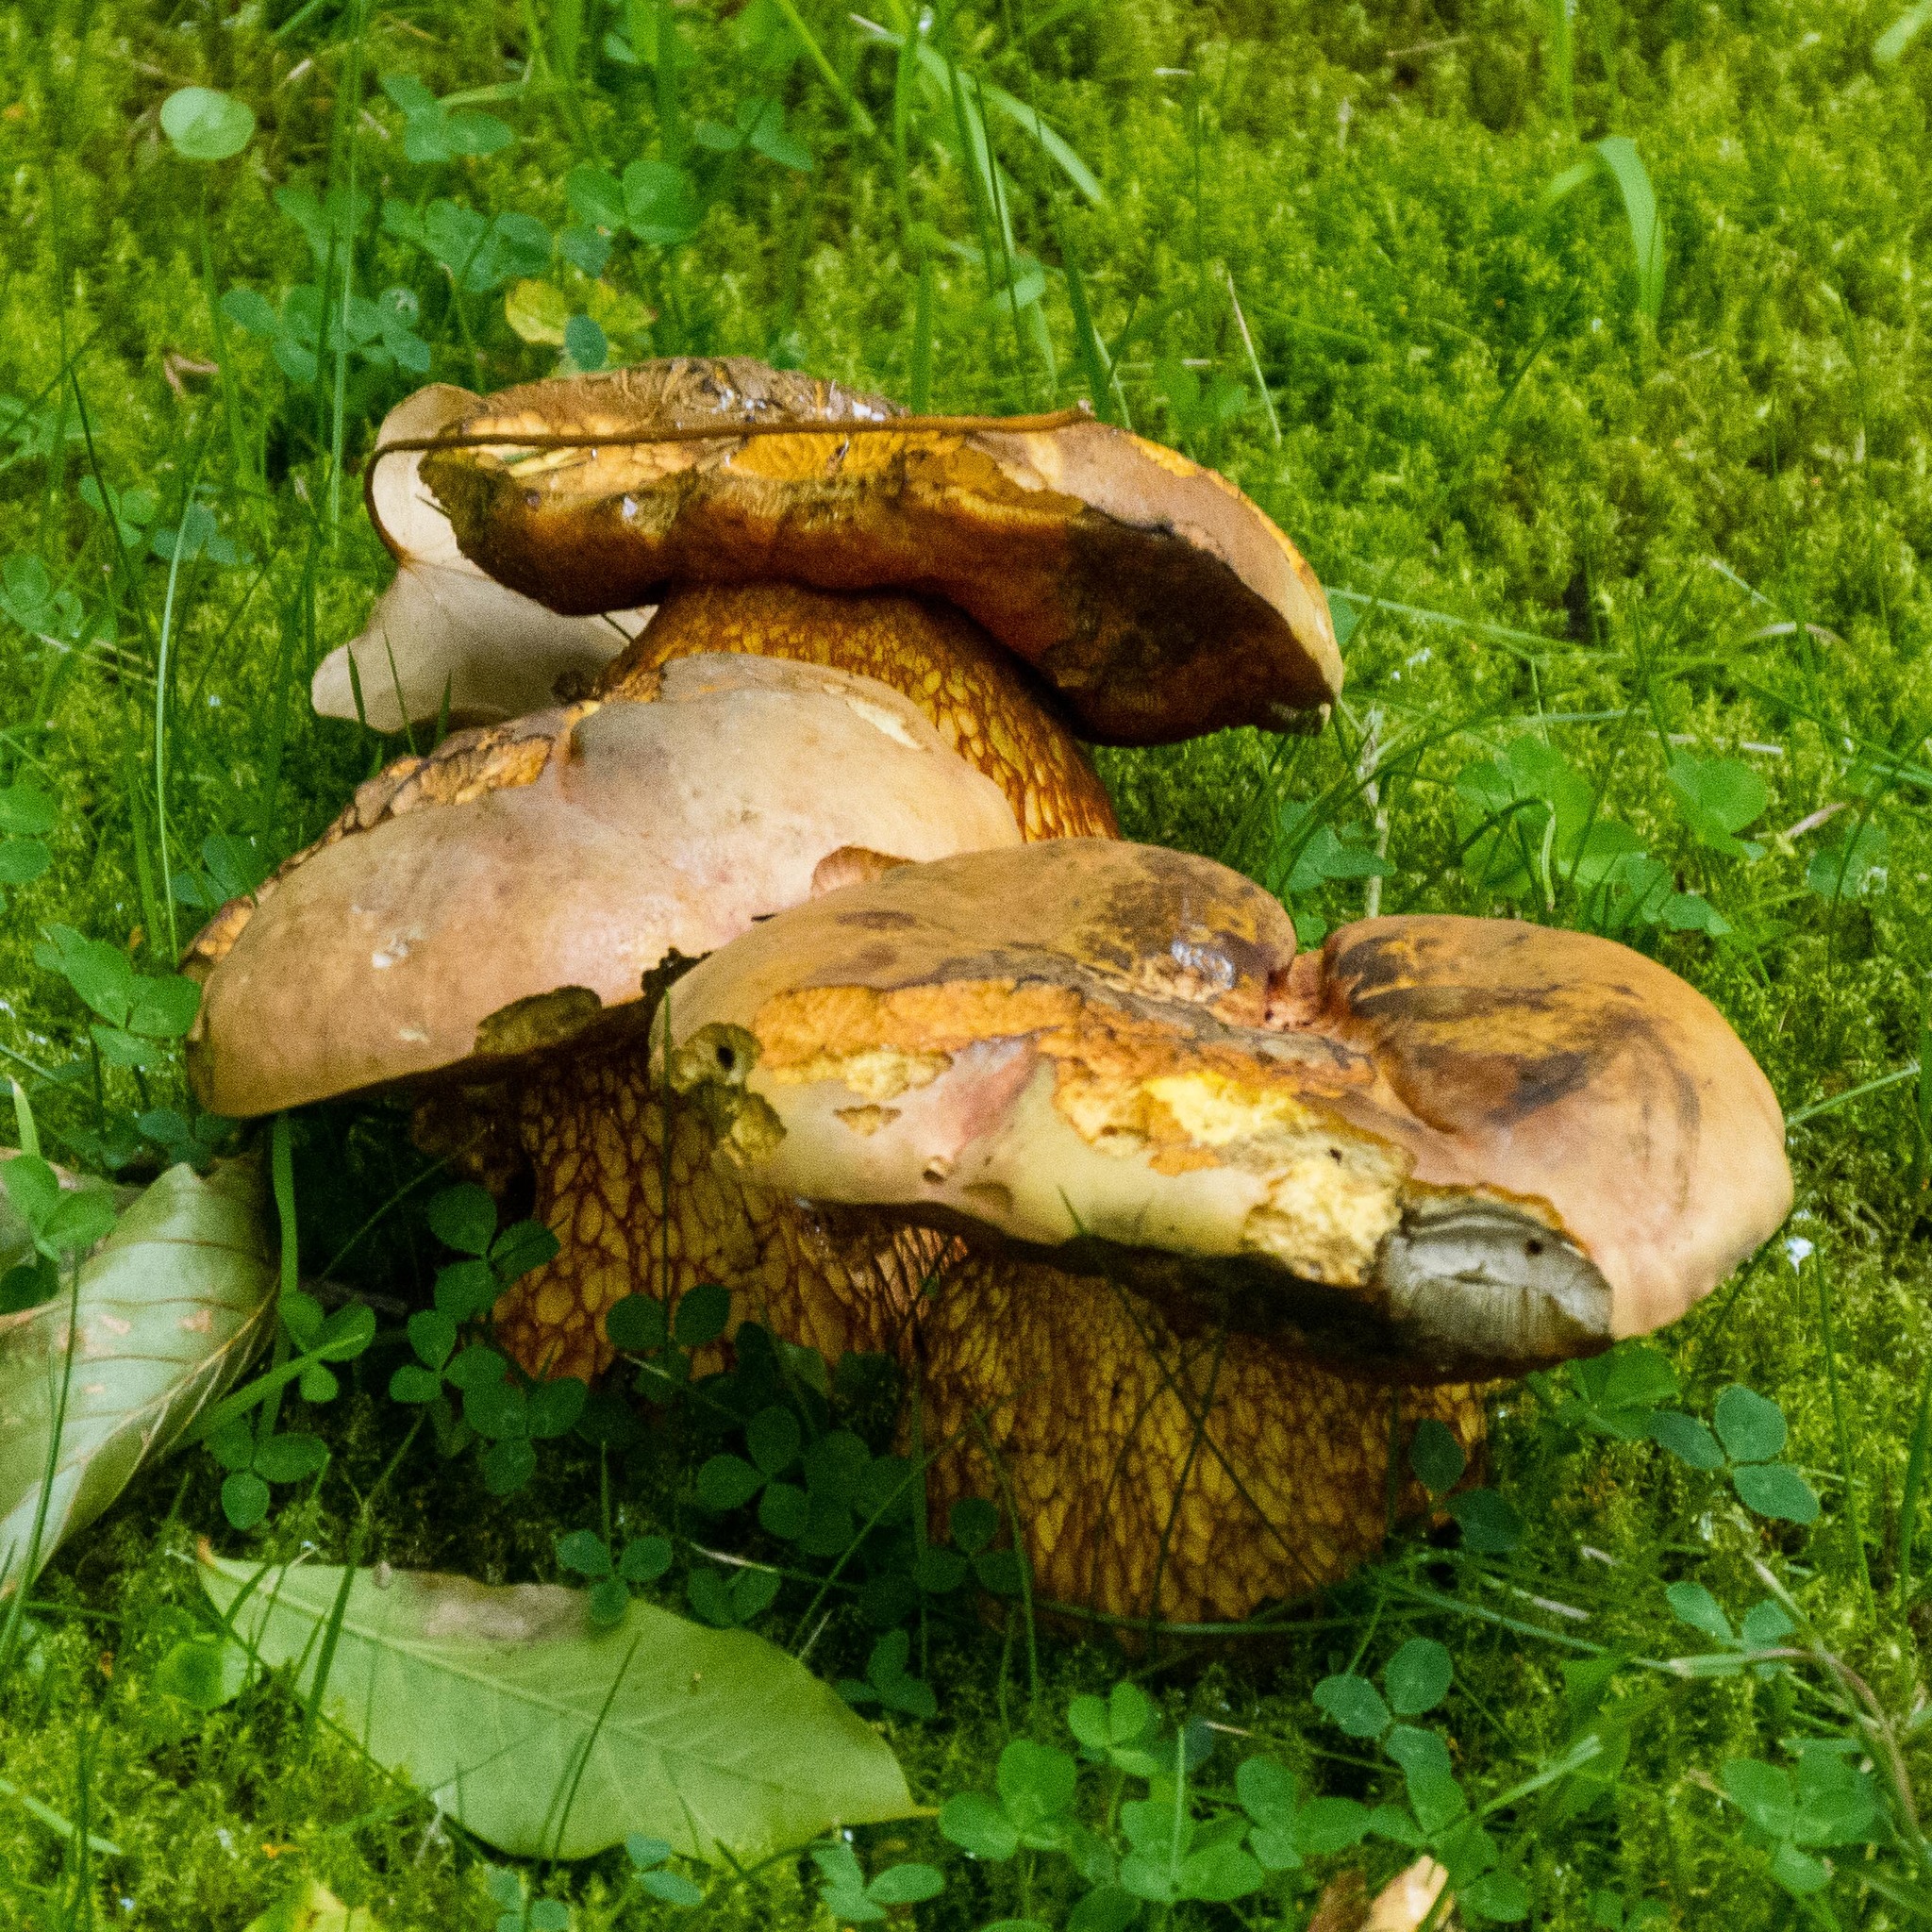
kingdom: Fungi
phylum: Basidiomycota
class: Agaricomycetes
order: Boletales
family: Boletaceae
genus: Suillellus
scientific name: Suillellus luridus
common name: Lurid bolete
